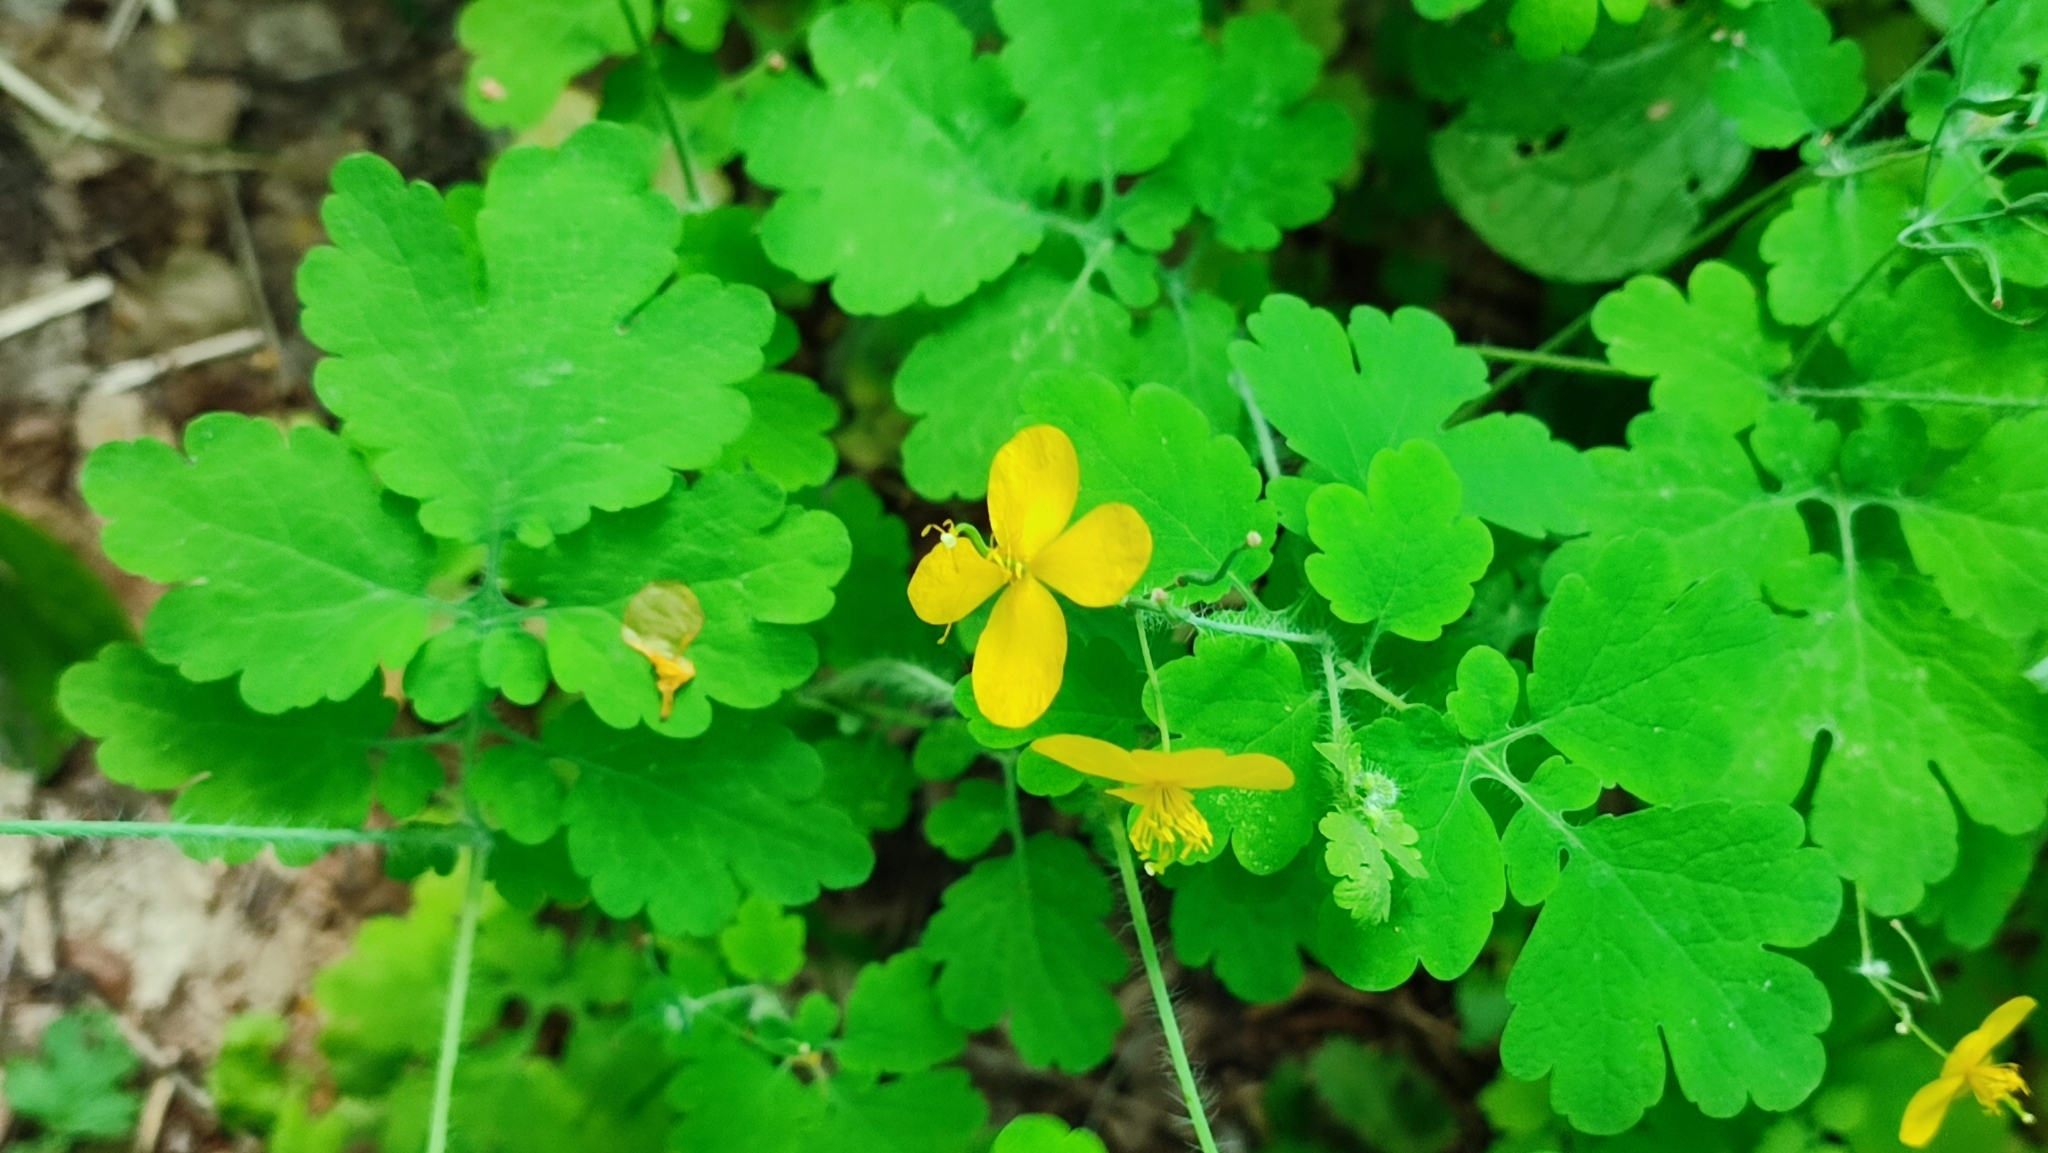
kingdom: Plantae
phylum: Tracheophyta
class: Magnoliopsida
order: Ranunculales
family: Papaveraceae
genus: Chelidonium
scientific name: Chelidonium majus
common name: Greater celandine
